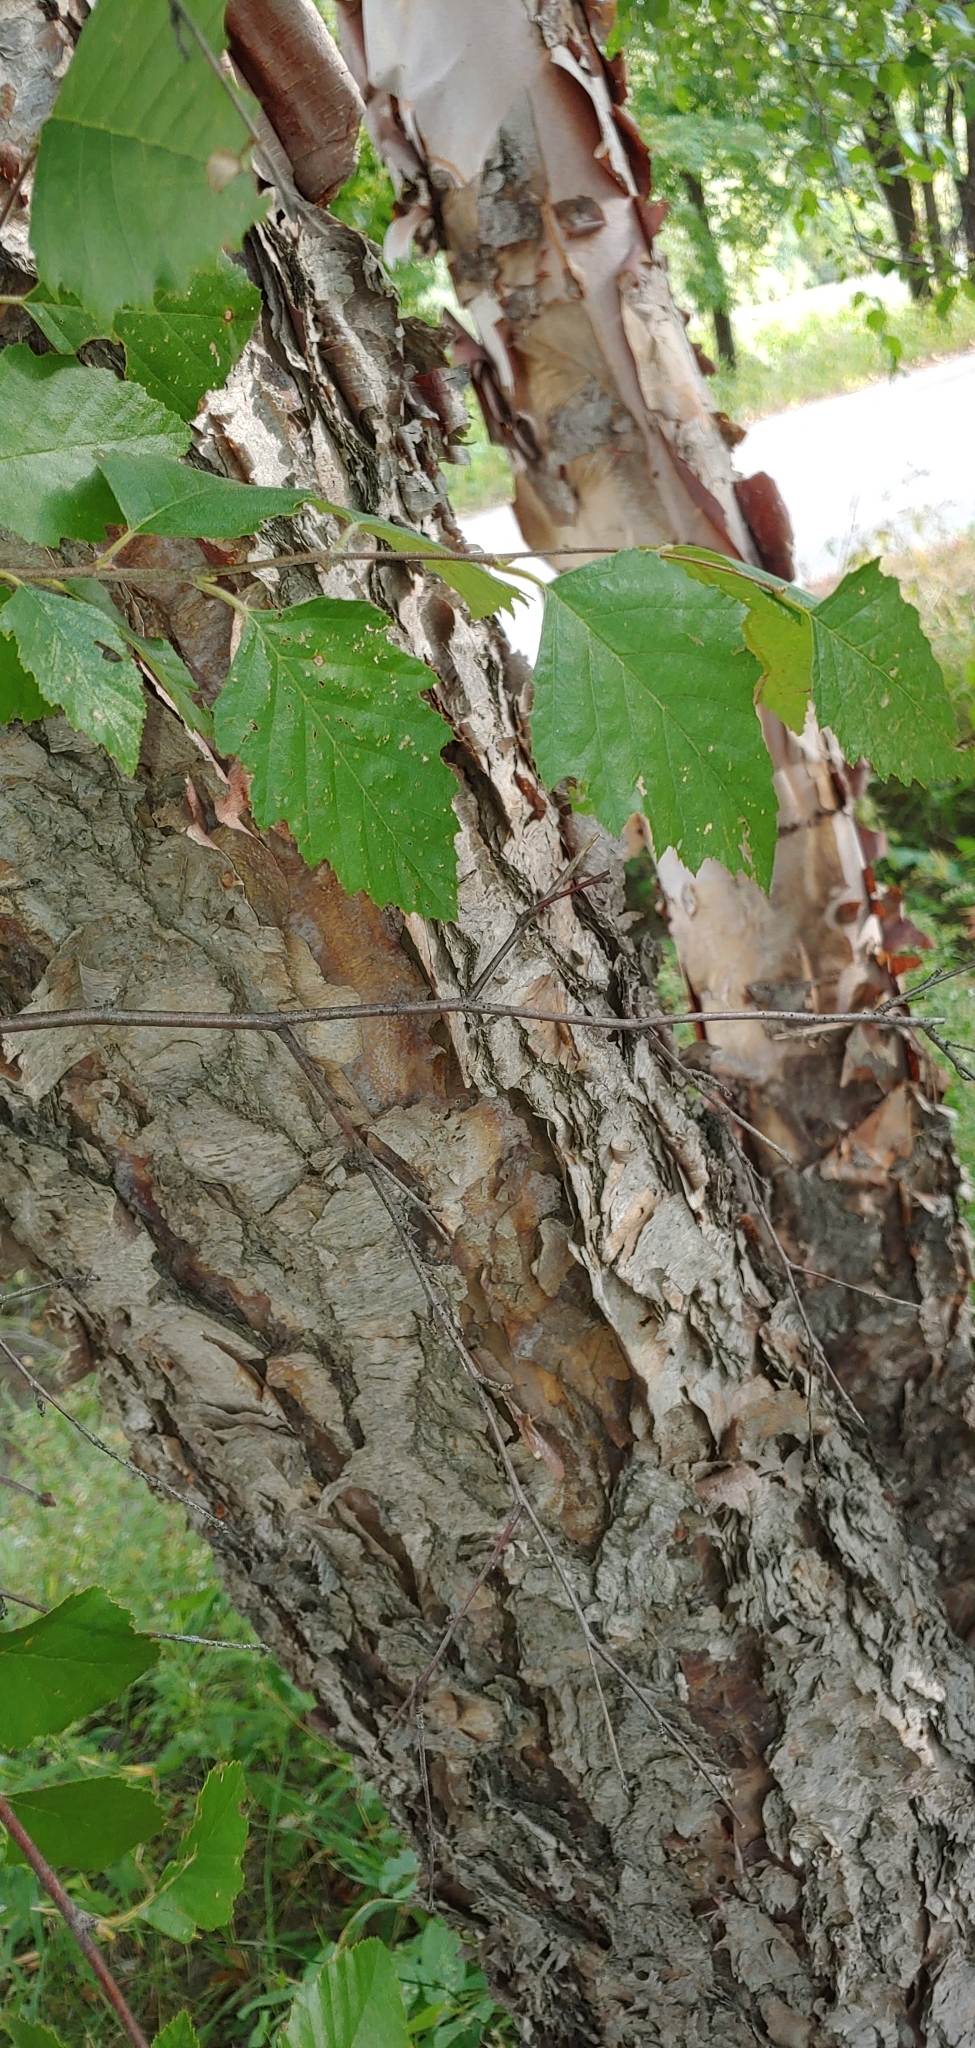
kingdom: Plantae
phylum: Tracheophyta
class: Magnoliopsida
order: Fagales
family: Betulaceae
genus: Betula
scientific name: Betula nigra
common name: Black birch
